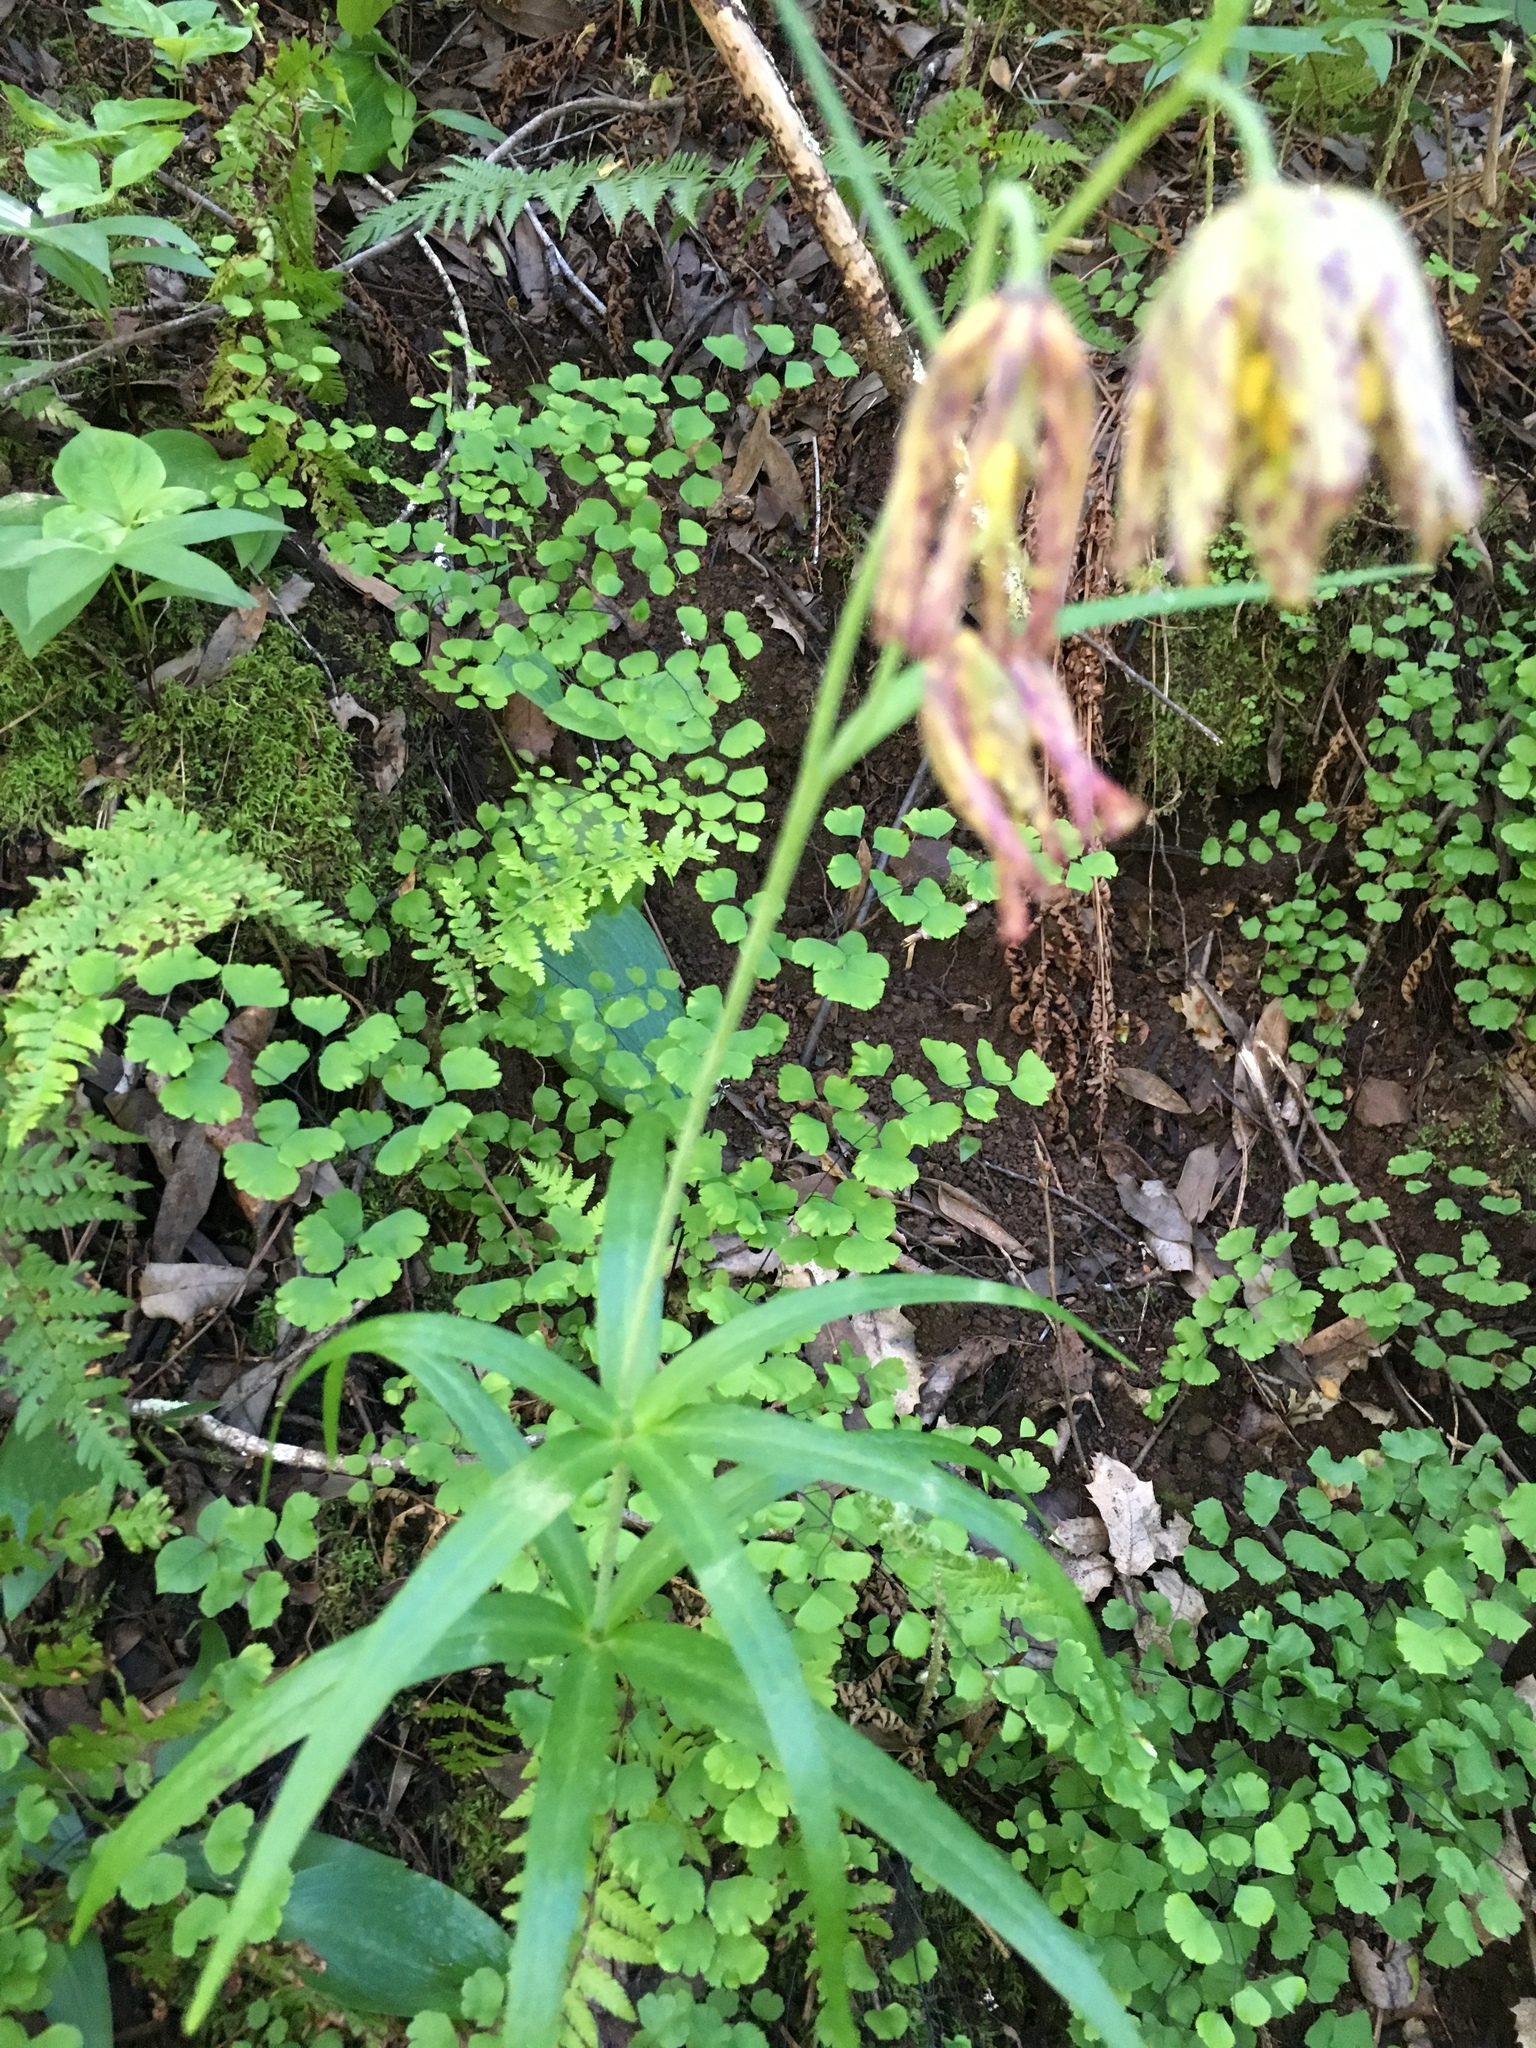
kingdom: Plantae
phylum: Tracheophyta
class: Liliopsida
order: Liliales
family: Liliaceae
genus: Fritillaria
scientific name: Fritillaria affinis
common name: Ojai fritillary
